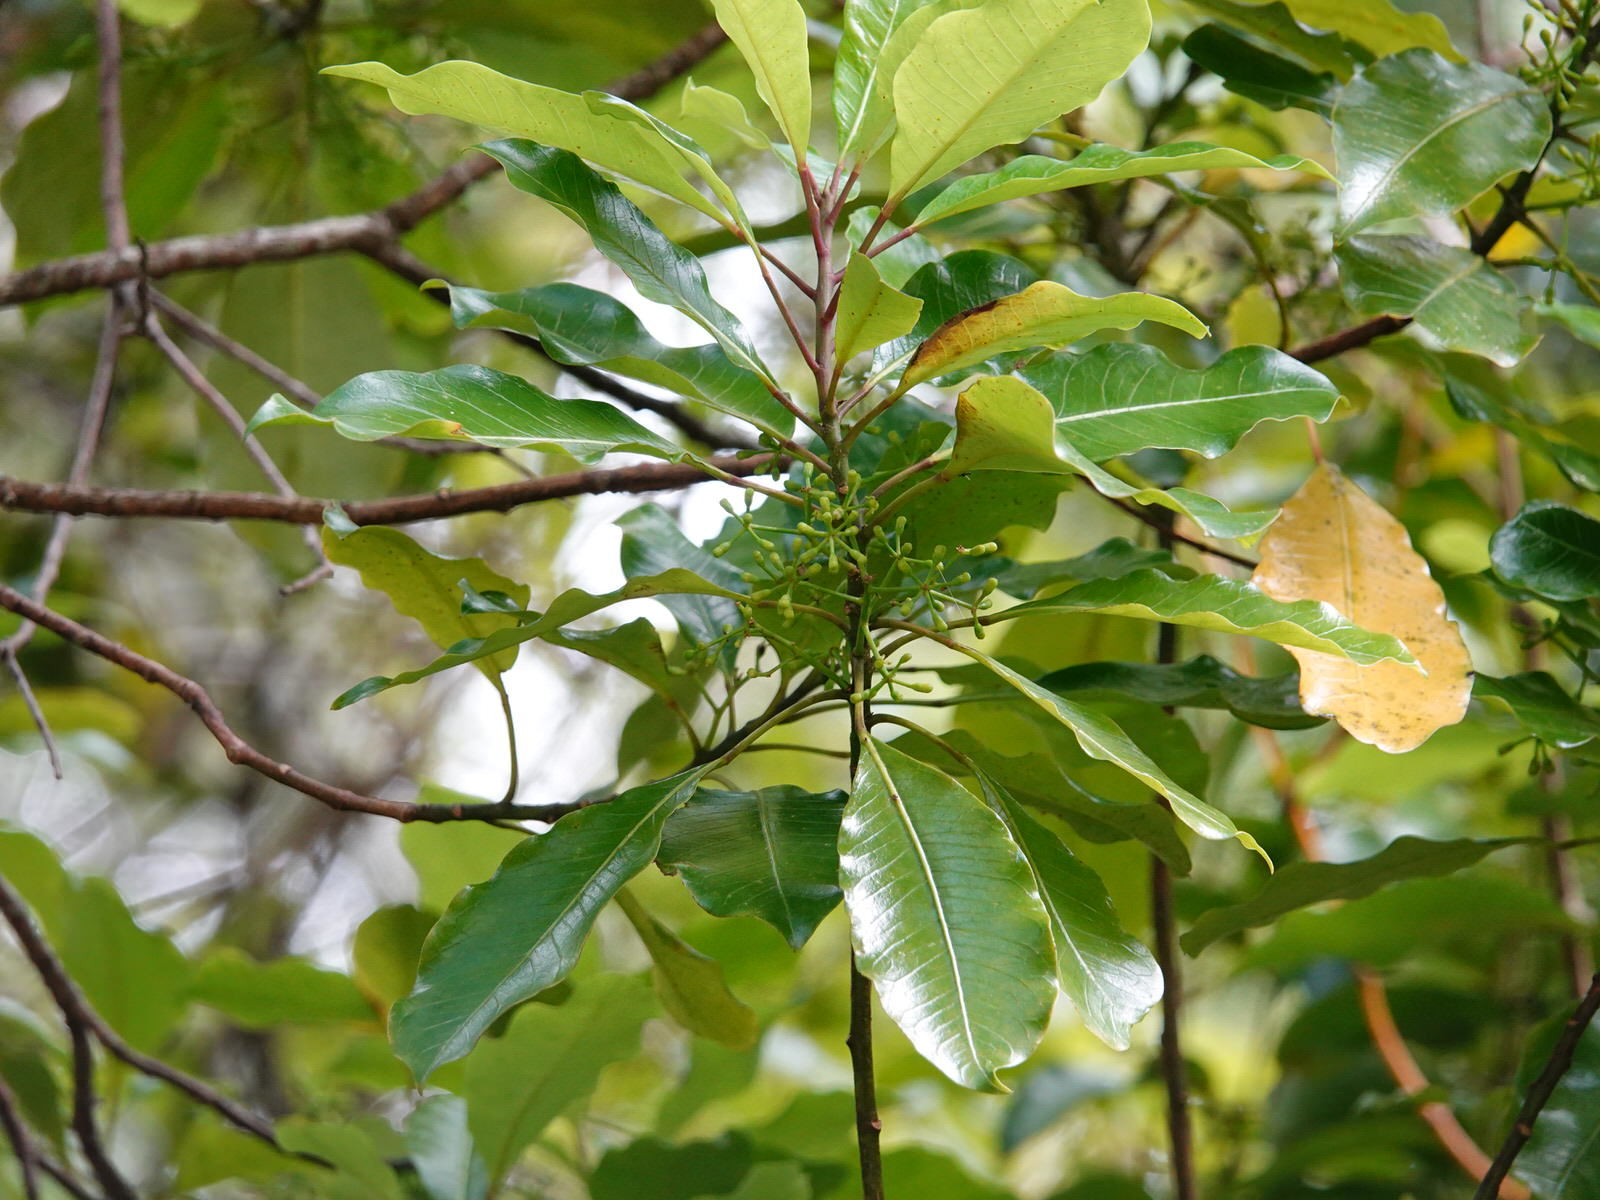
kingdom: Plantae
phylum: Tracheophyta
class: Magnoliopsida
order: Apiales
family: Araliaceae
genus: Raukaua
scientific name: Raukaua edgerleyi
